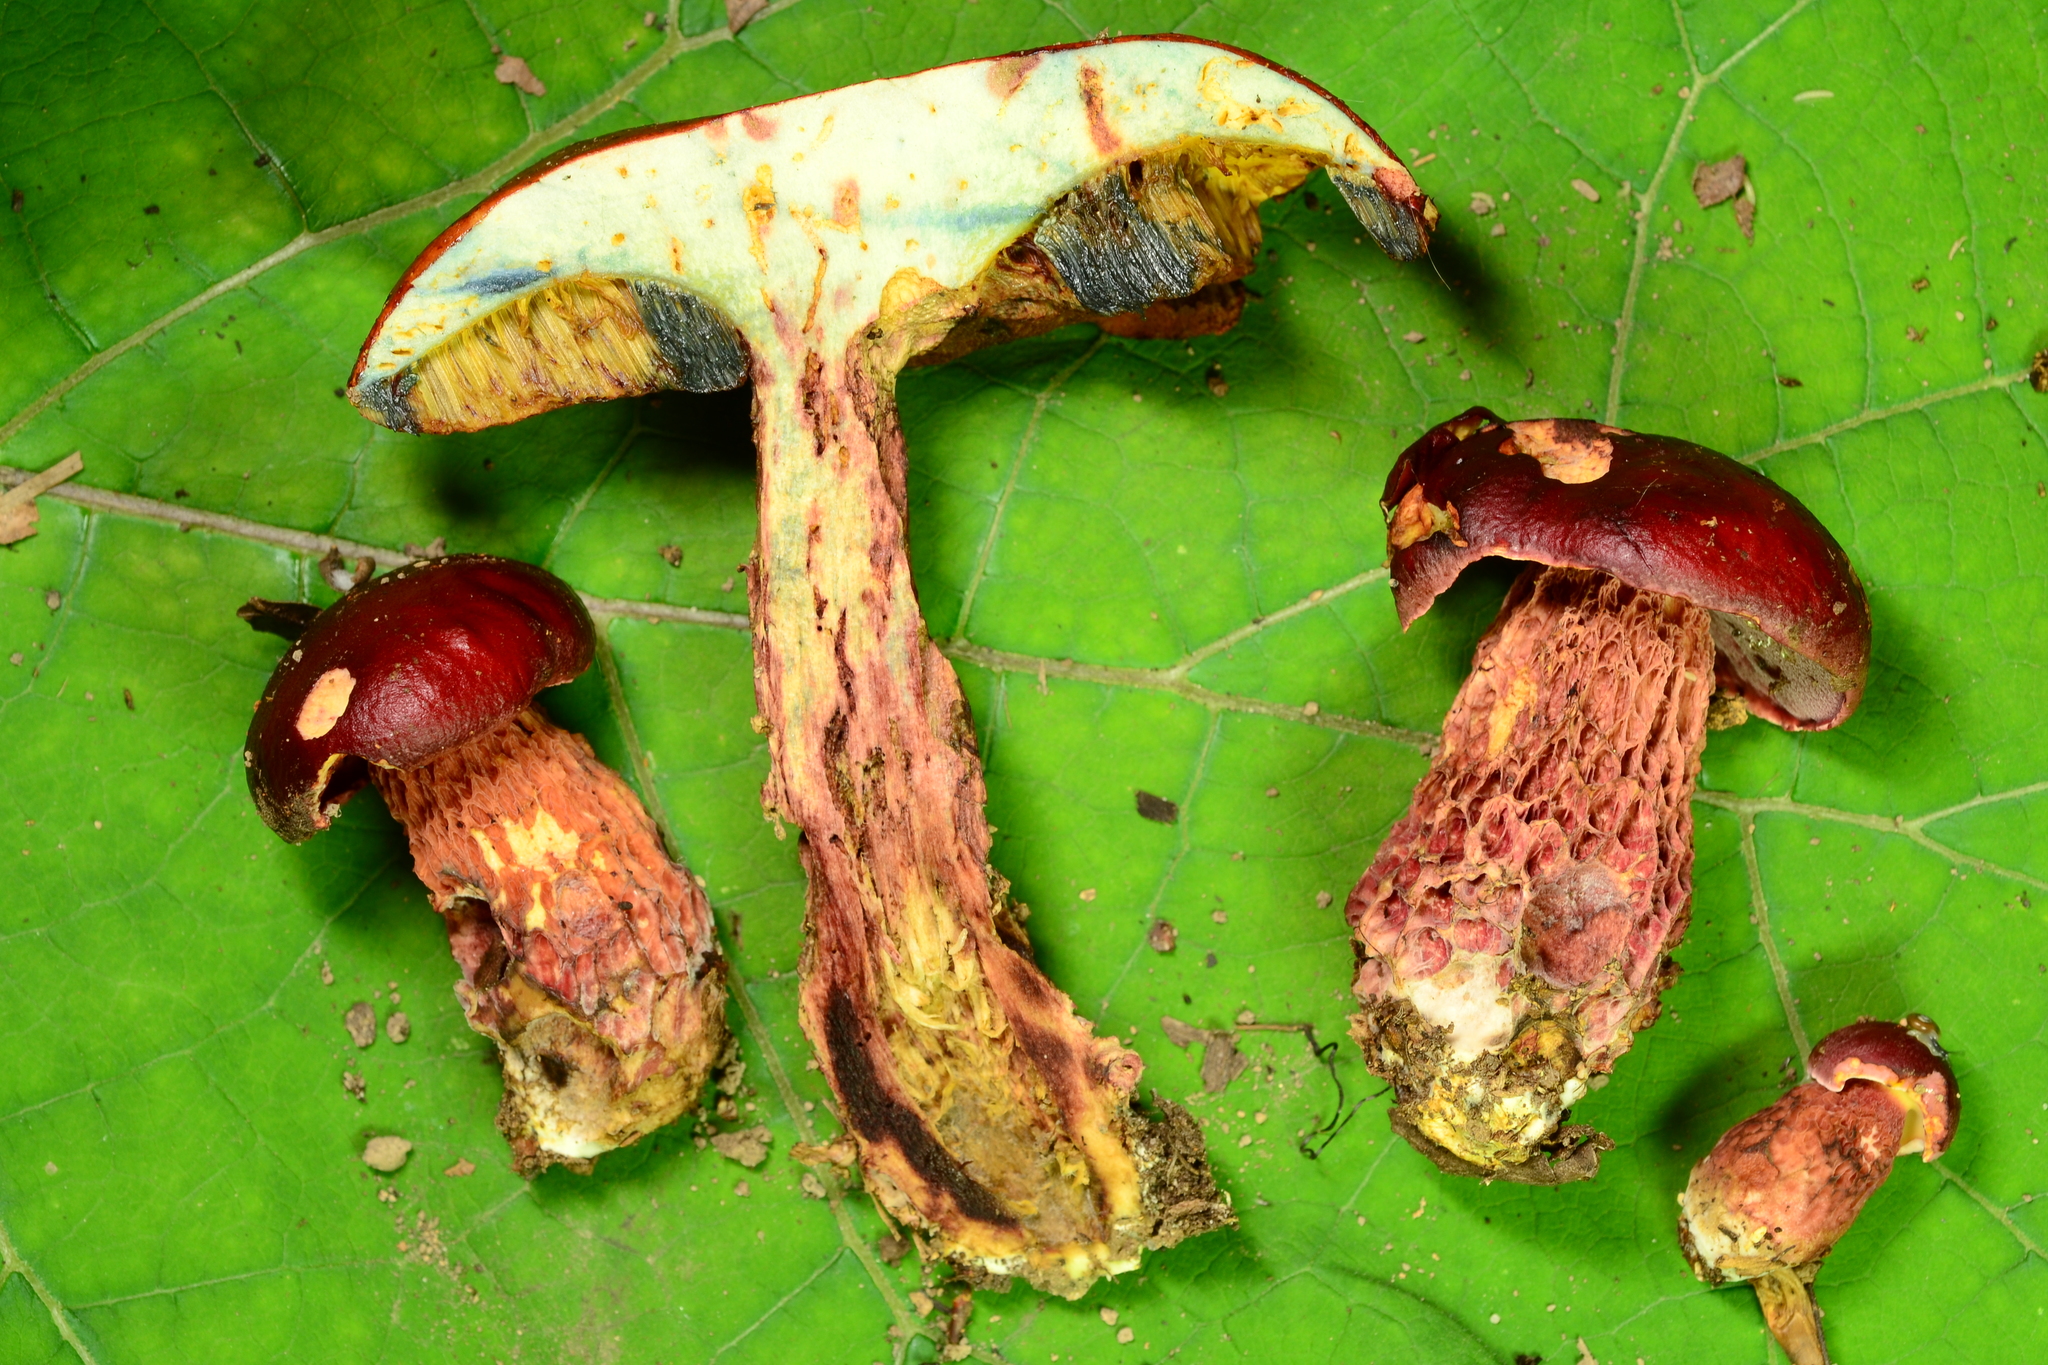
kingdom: Fungi
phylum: Basidiomycota
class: Agaricomycetes
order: Boletales
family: Boletaceae
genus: Butyriboletus
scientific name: Butyriboletus frostii
